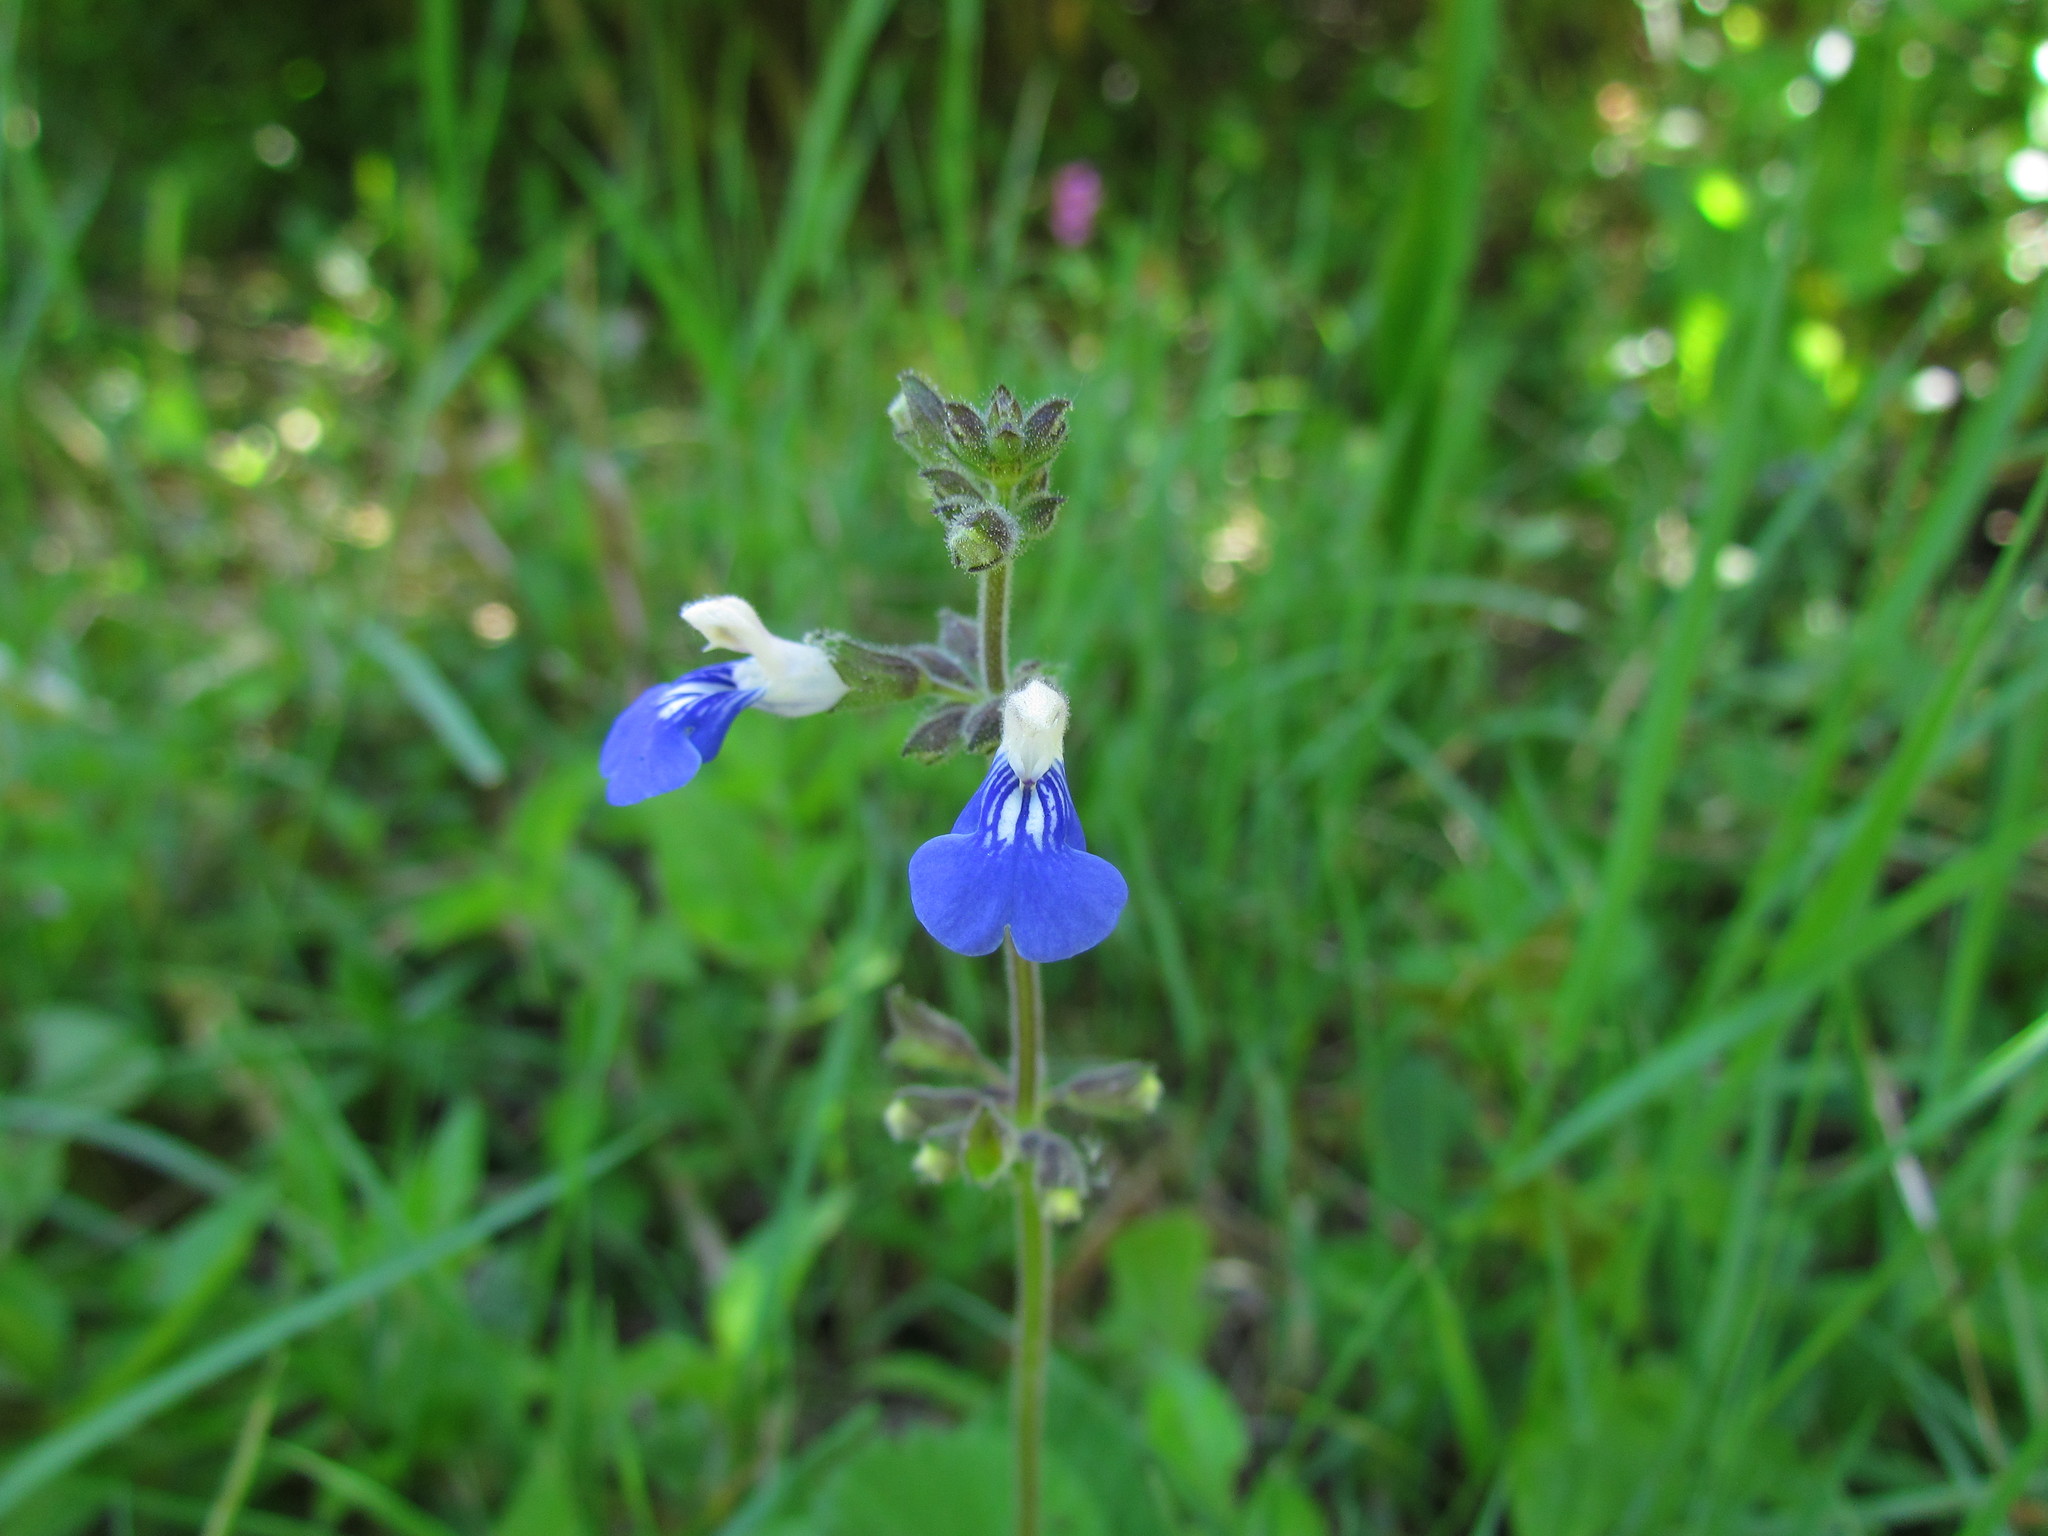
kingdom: Plantae
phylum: Tracheophyta
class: Magnoliopsida
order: Lamiales
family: Lamiaceae
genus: Salvia
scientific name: Salvia procurrens
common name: Blue creeper
